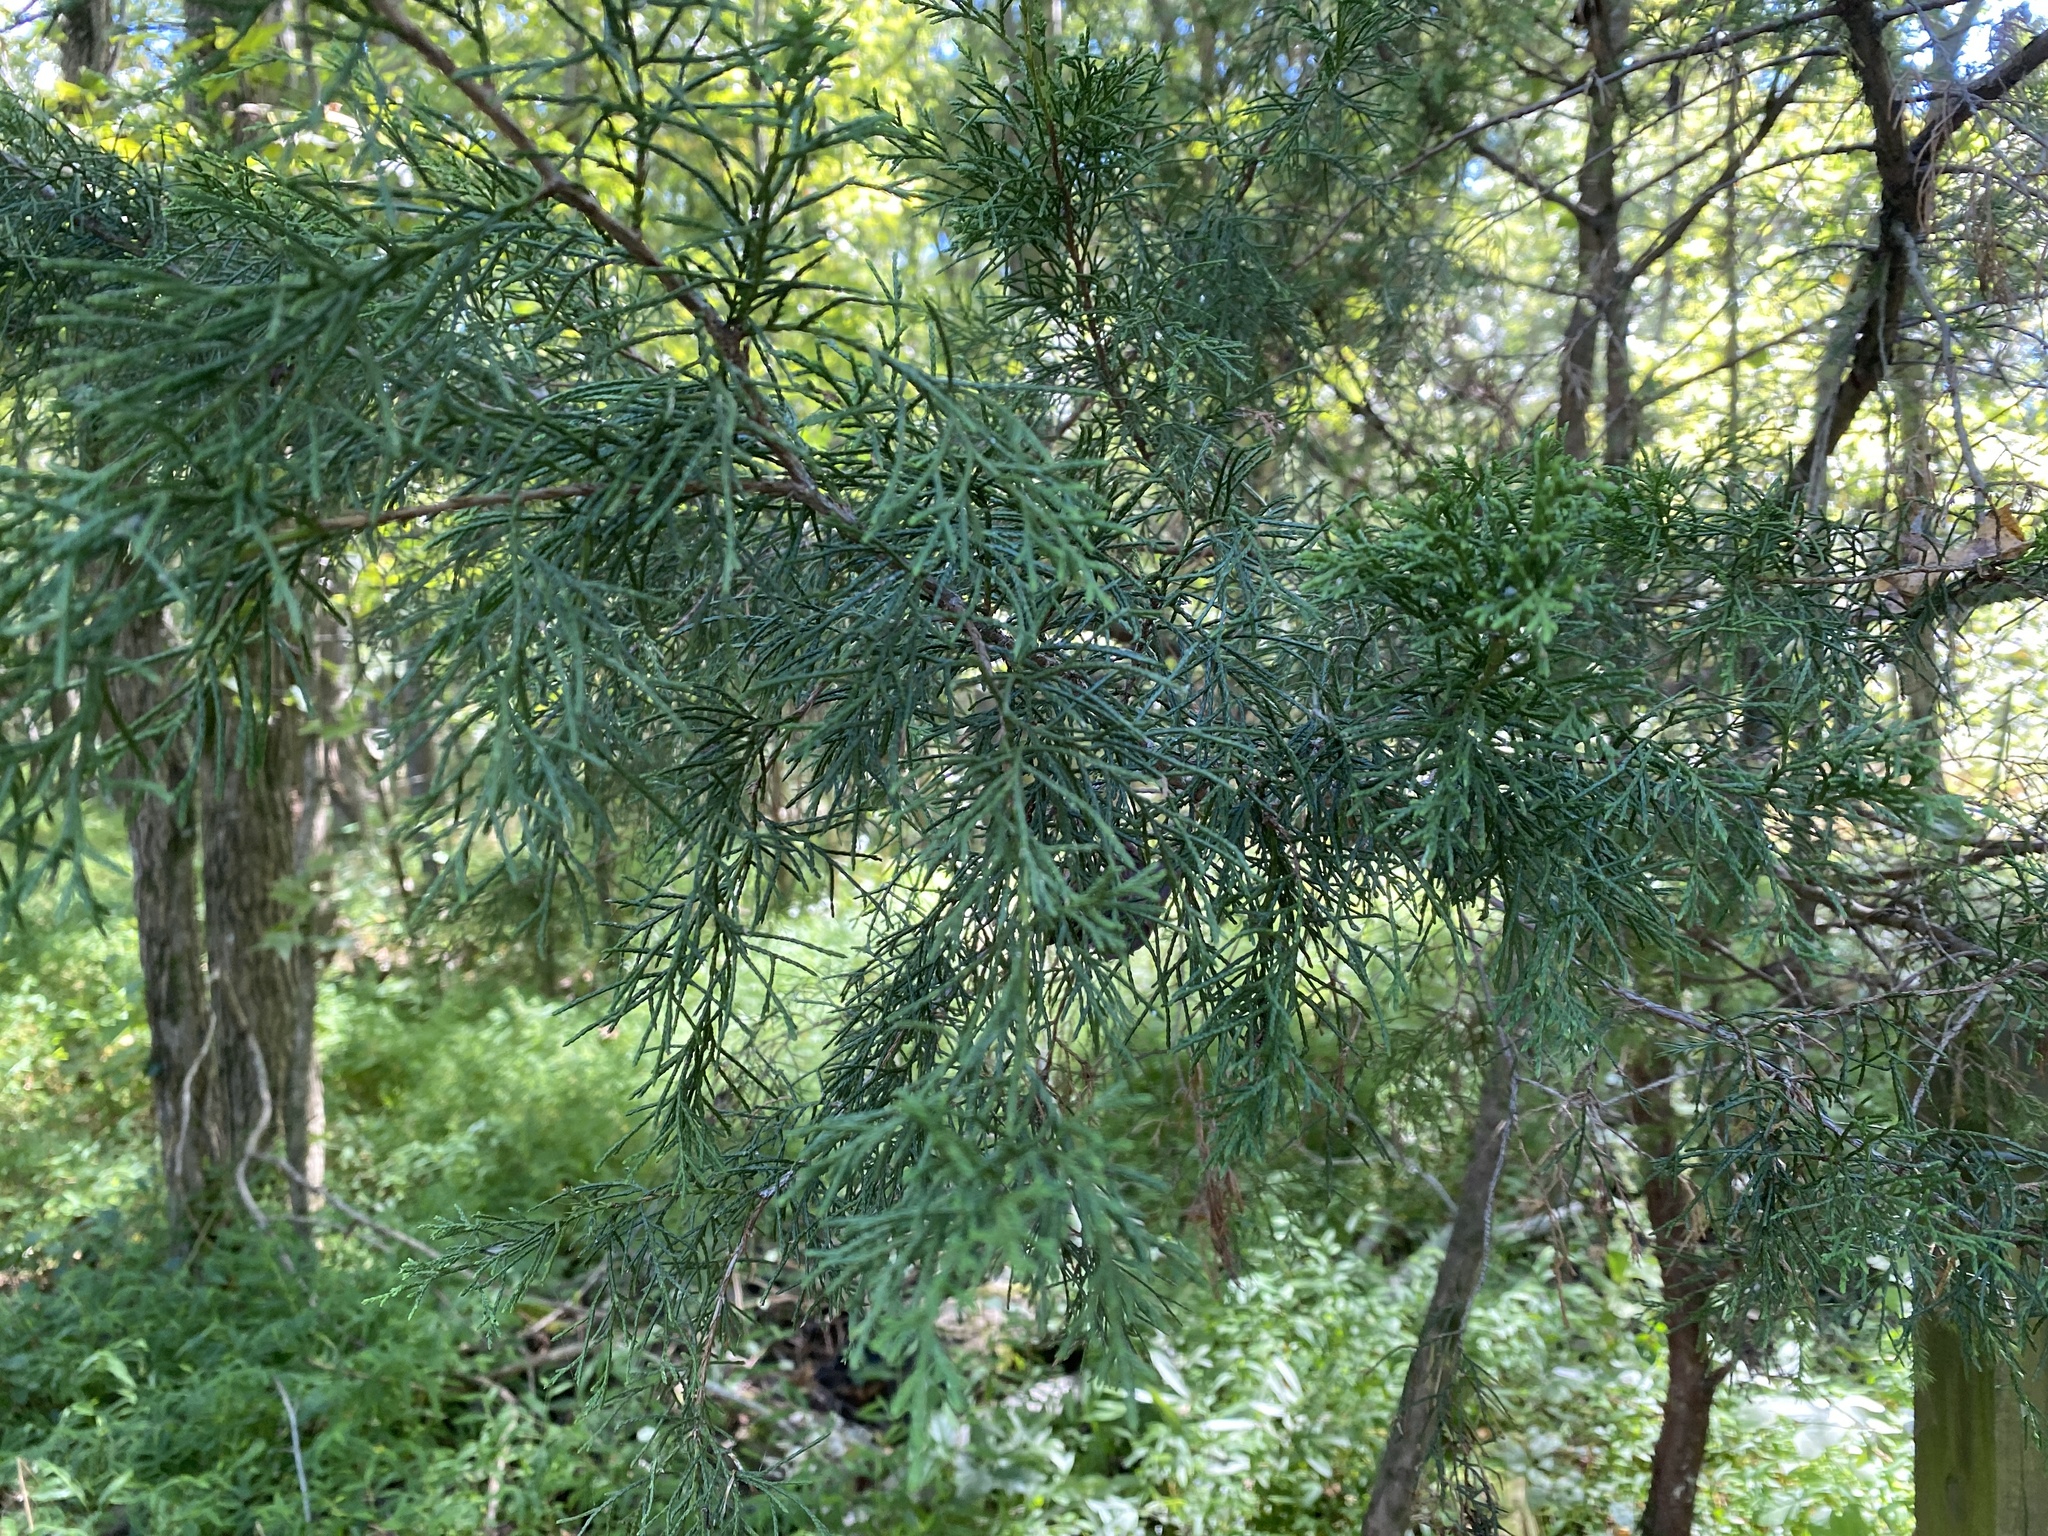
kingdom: Plantae
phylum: Tracheophyta
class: Pinopsida
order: Pinales
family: Cupressaceae
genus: Juniperus
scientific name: Juniperus virginiana
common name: Red juniper
